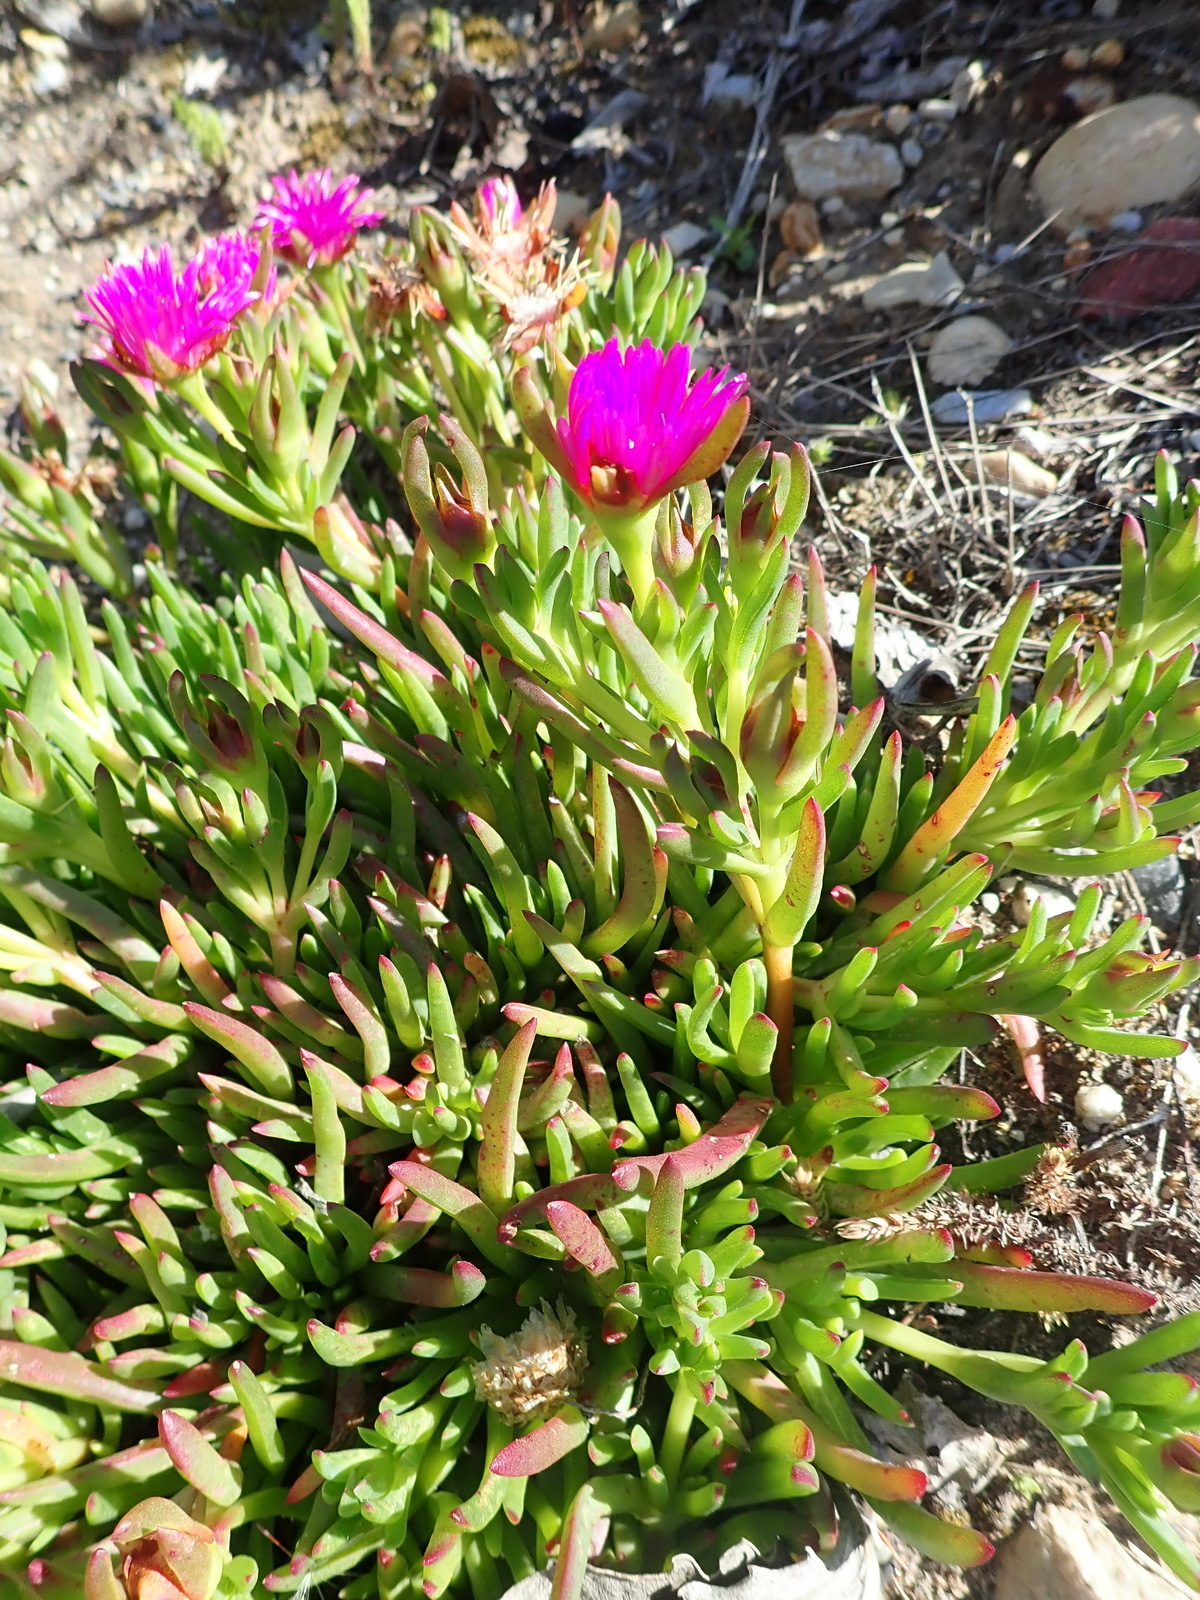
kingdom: Plantae
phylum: Tracheophyta
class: Magnoliopsida
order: Caryophyllales
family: Aizoaceae
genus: Ruschia
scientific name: Ruschia duthiae
